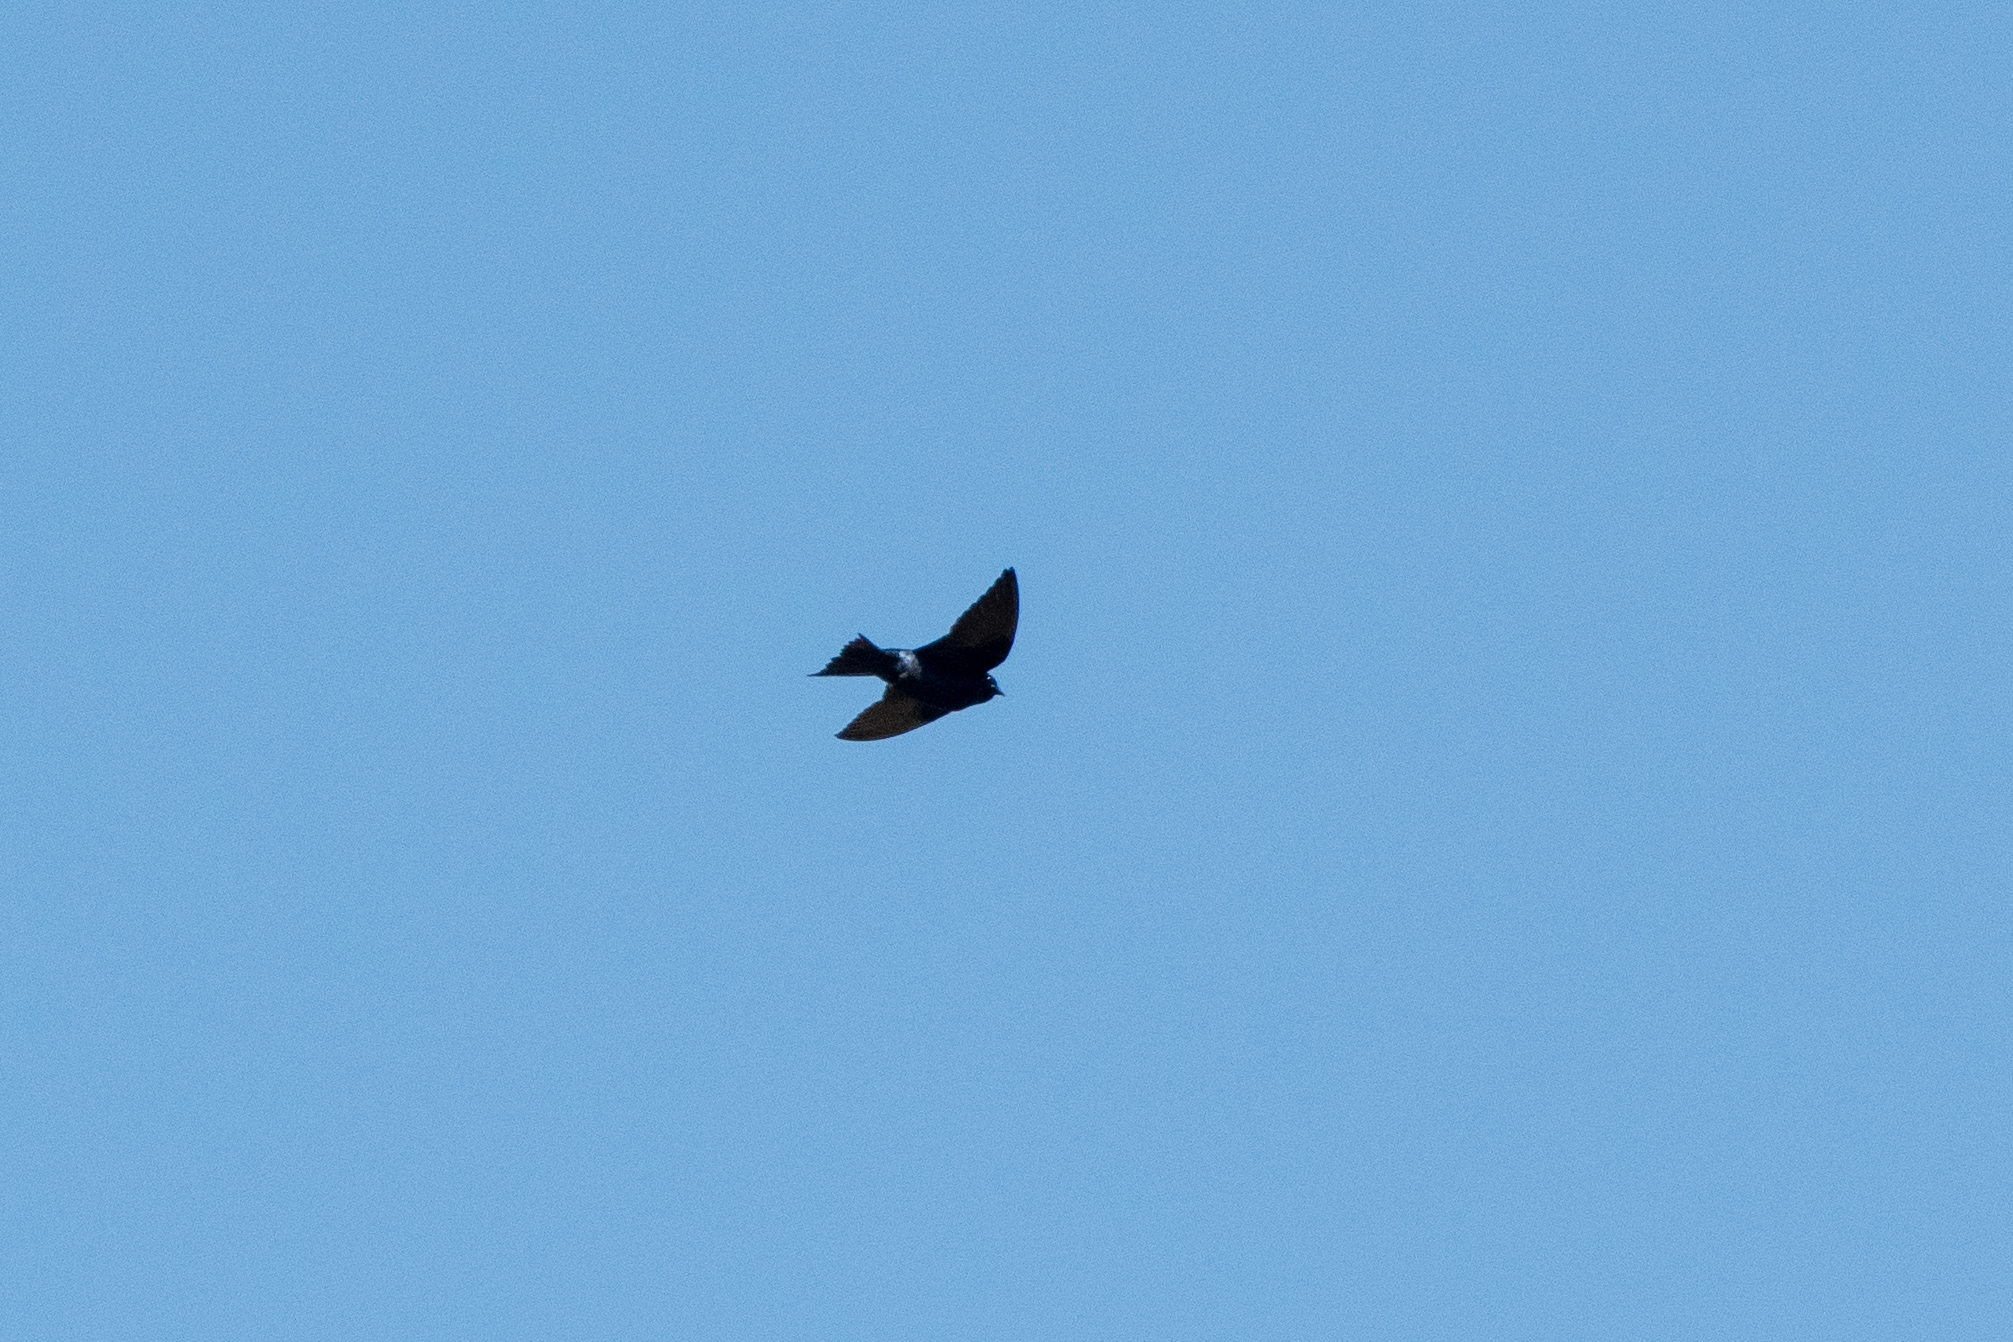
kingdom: Animalia
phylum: Chordata
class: Aves
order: Passeriformes
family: Hirundinidae
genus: Progne
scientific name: Progne subis
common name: Purple martin
